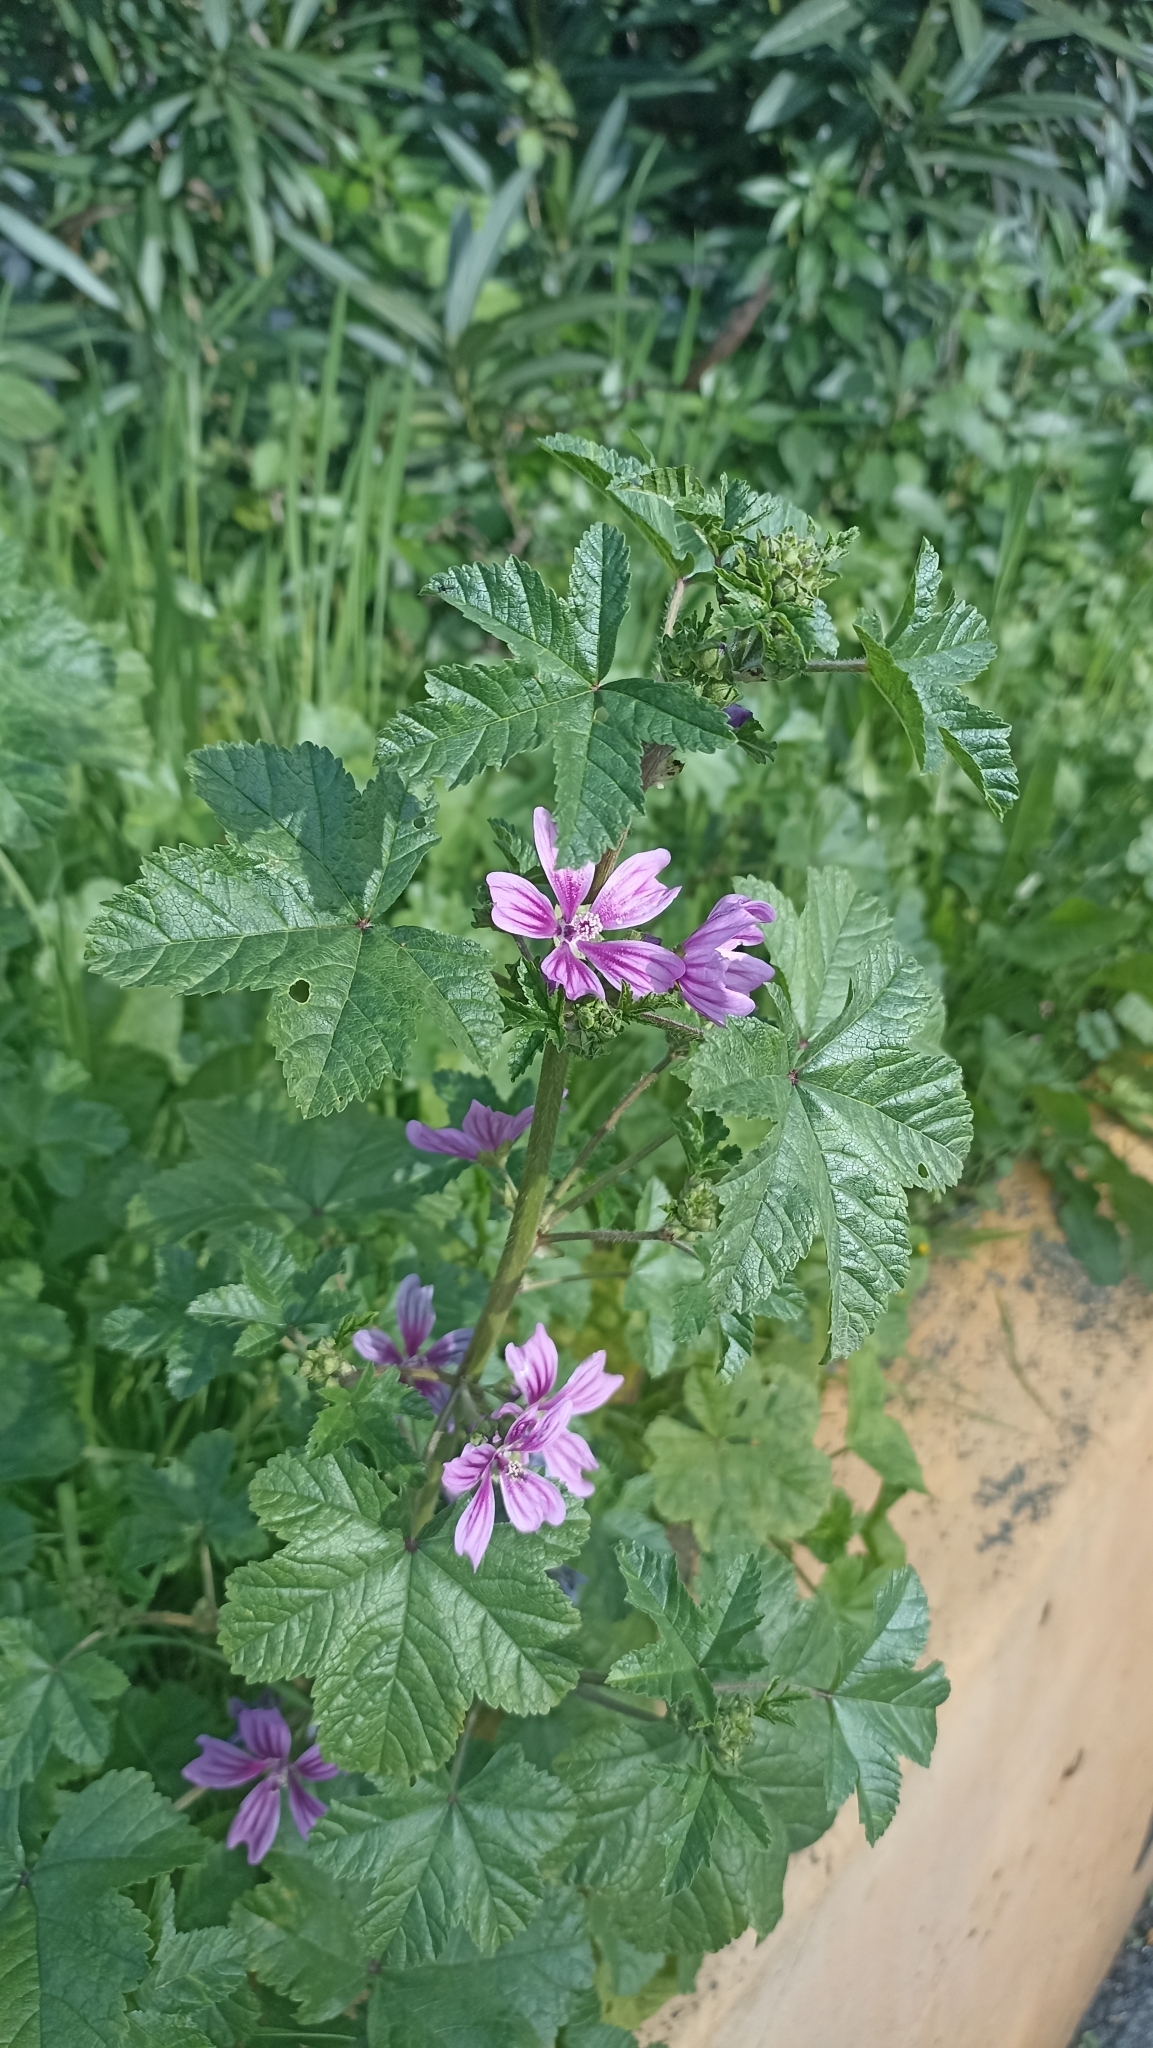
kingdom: Plantae
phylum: Tracheophyta
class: Magnoliopsida
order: Malvales
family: Malvaceae
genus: Malva
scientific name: Malva sylvestris
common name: Common mallow
